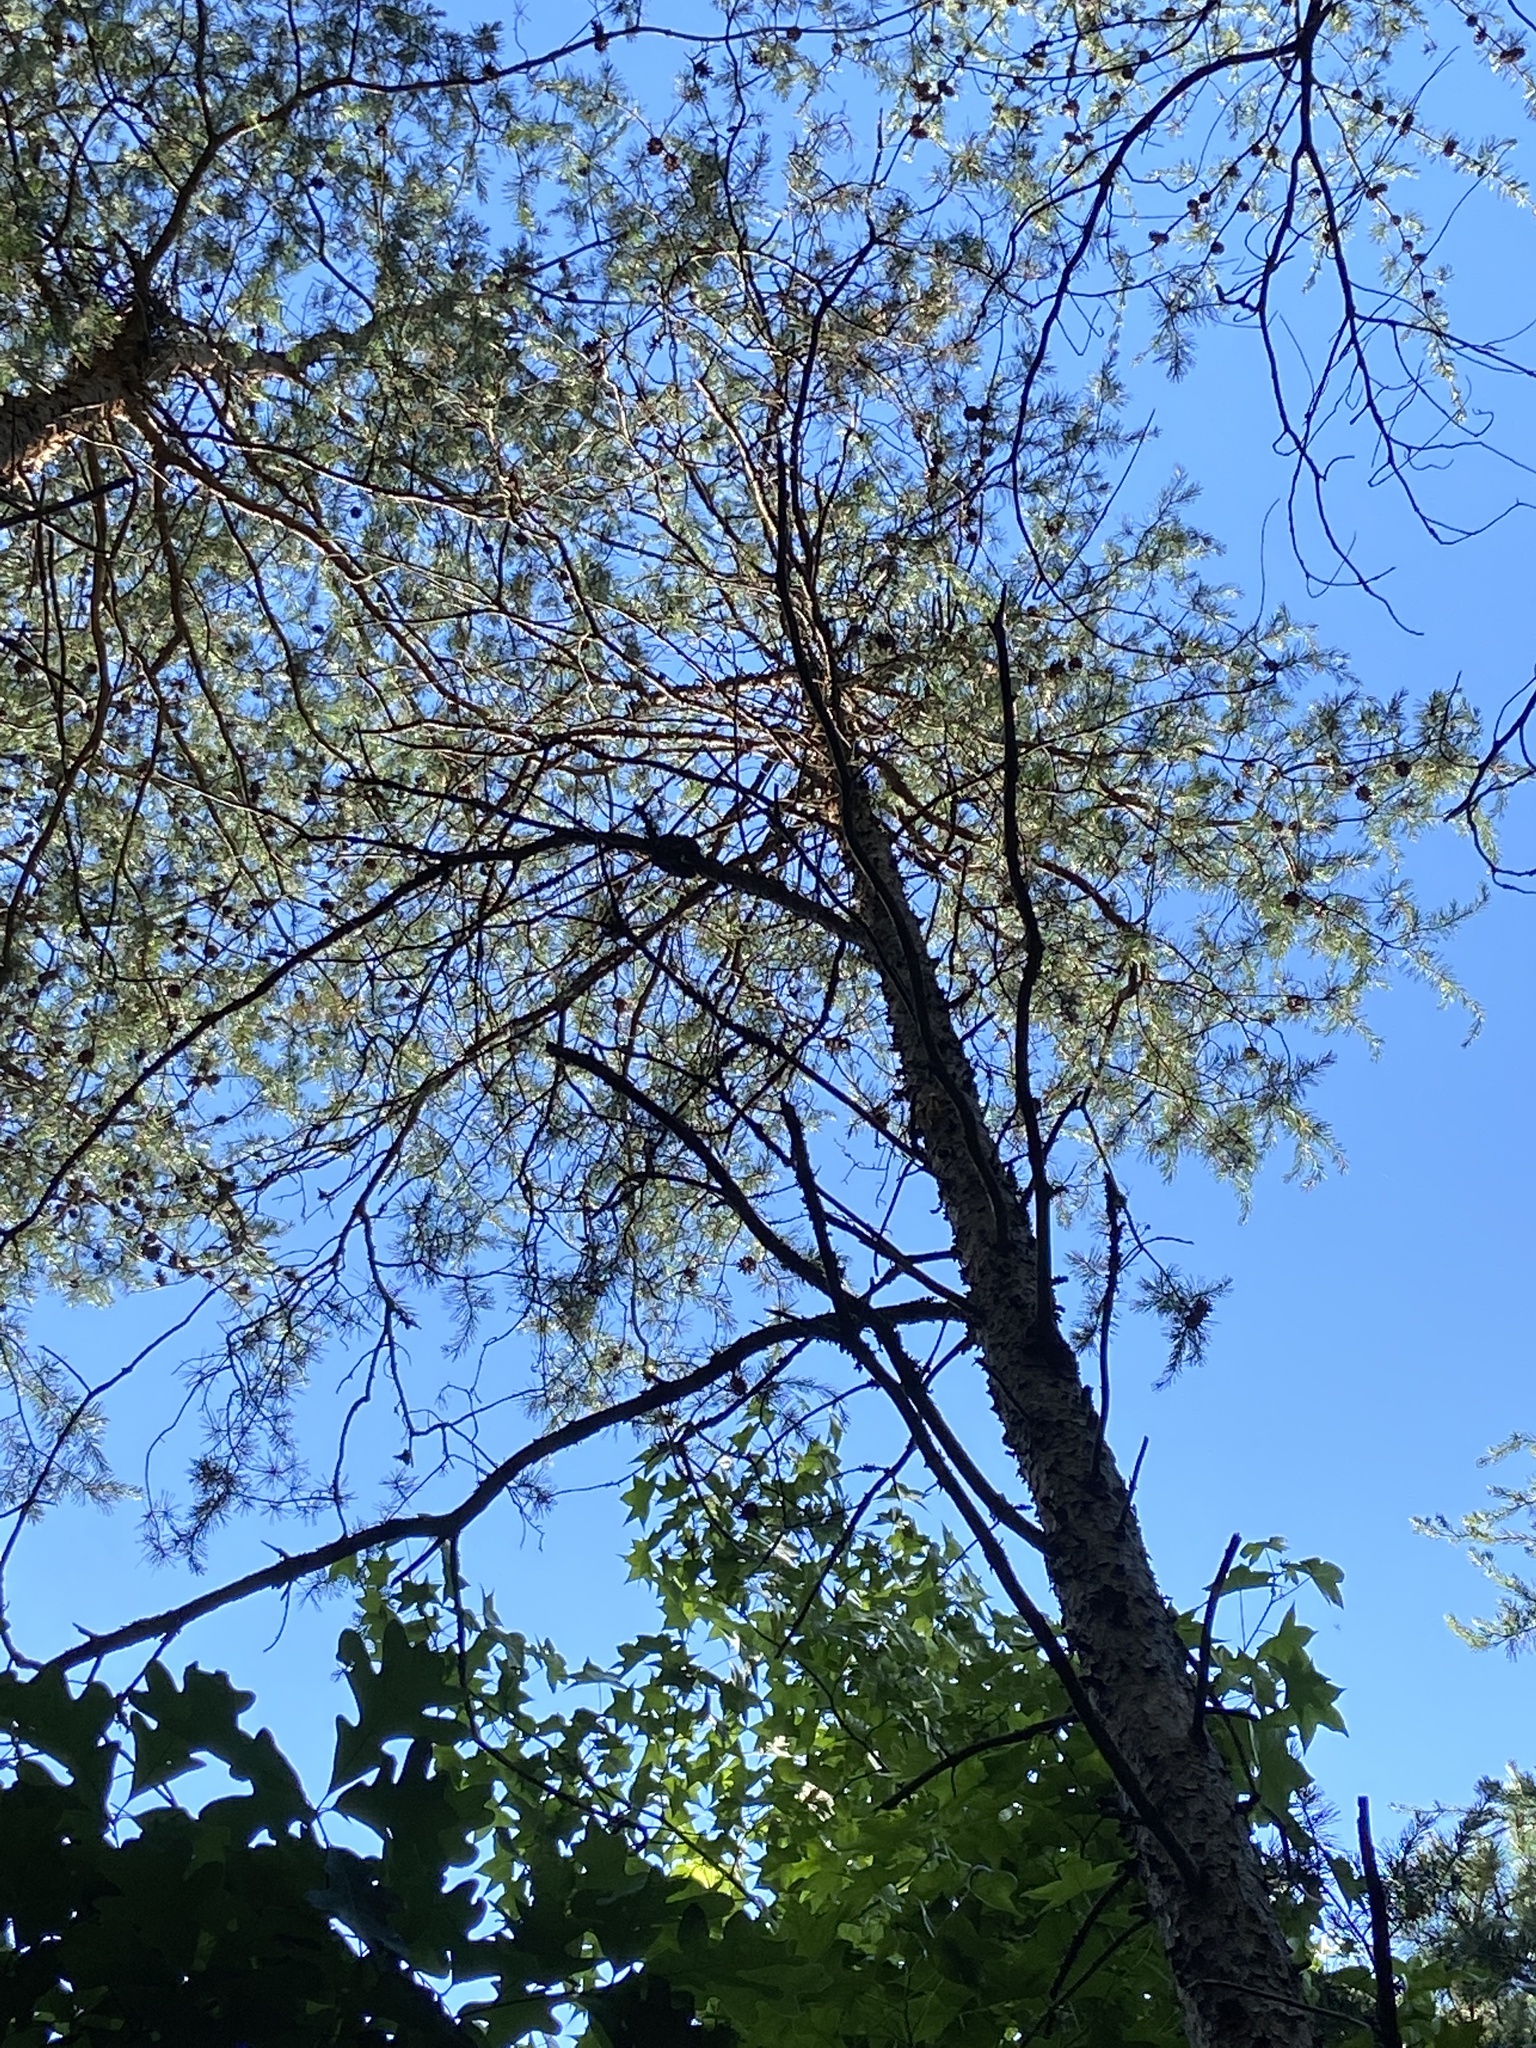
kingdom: Plantae
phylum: Tracheophyta
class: Pinopsida
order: Pinales
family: Pinaceae
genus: Pinus
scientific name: Pinus virginiana
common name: Scrub pine
